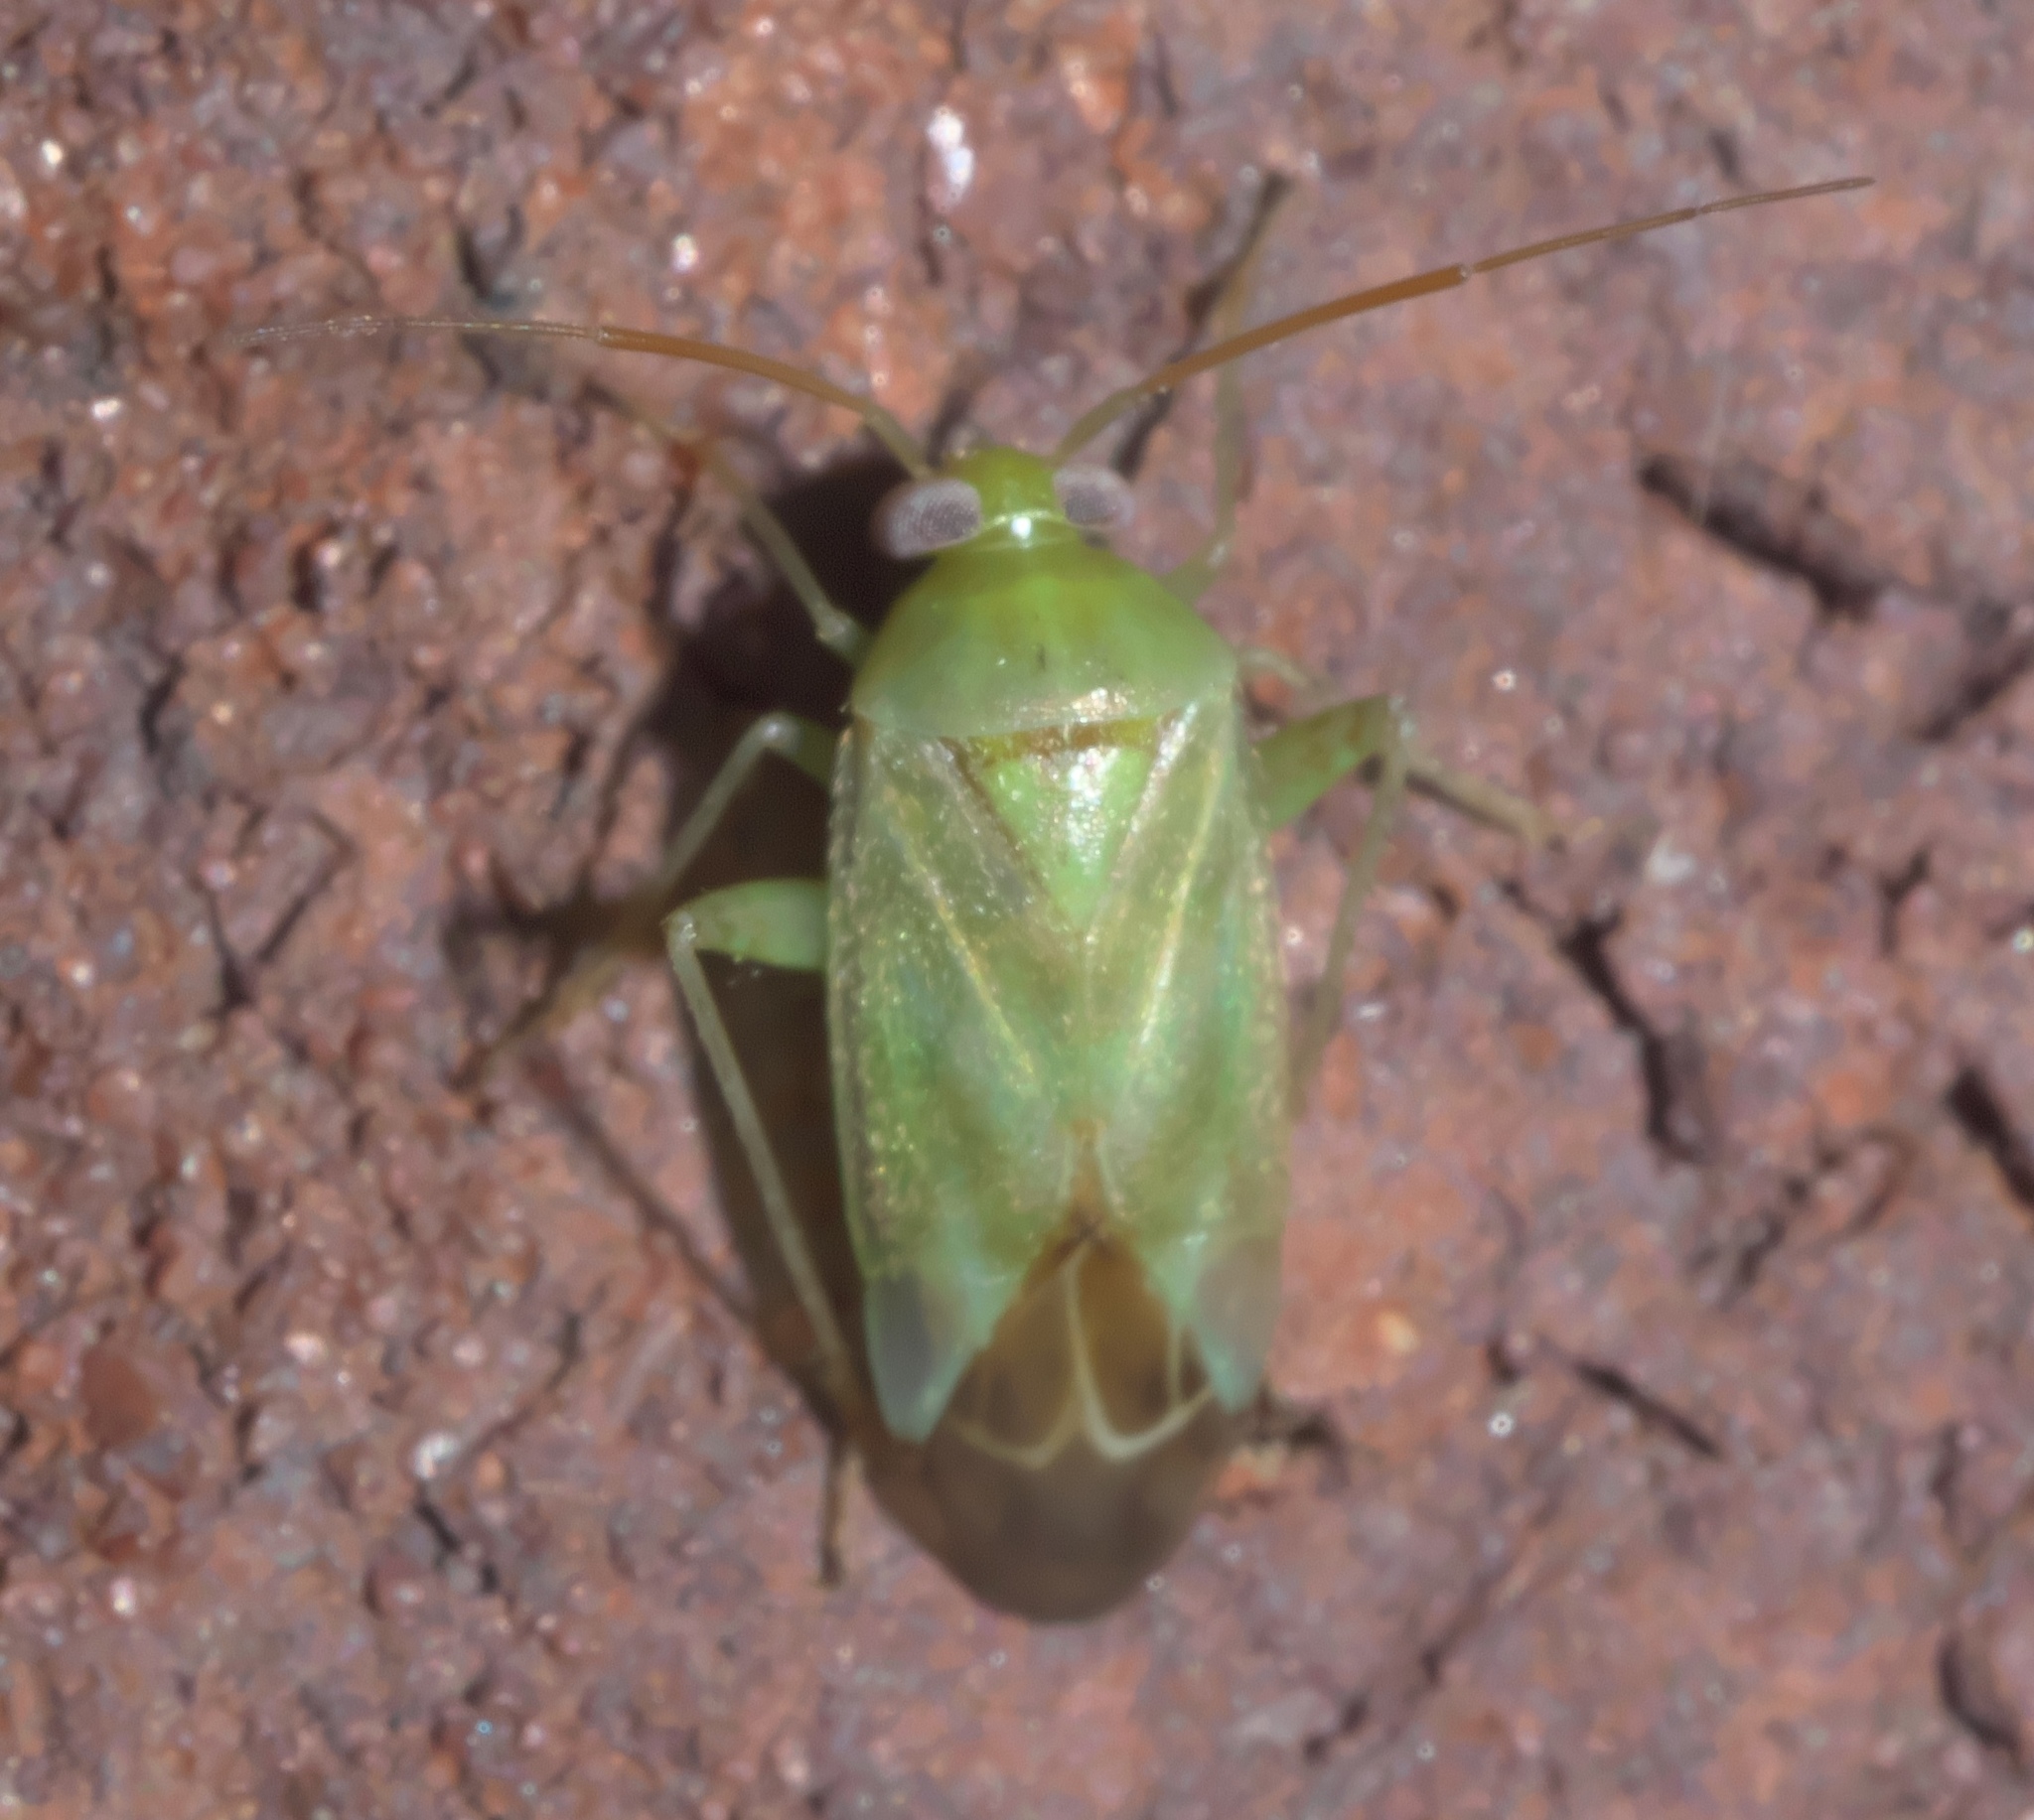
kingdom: Animalia
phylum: Arthropoda
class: Insecta
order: Hemiptera
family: Miridae
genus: Taylorilygus
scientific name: Taylorilygus apicalis
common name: Plant bug
